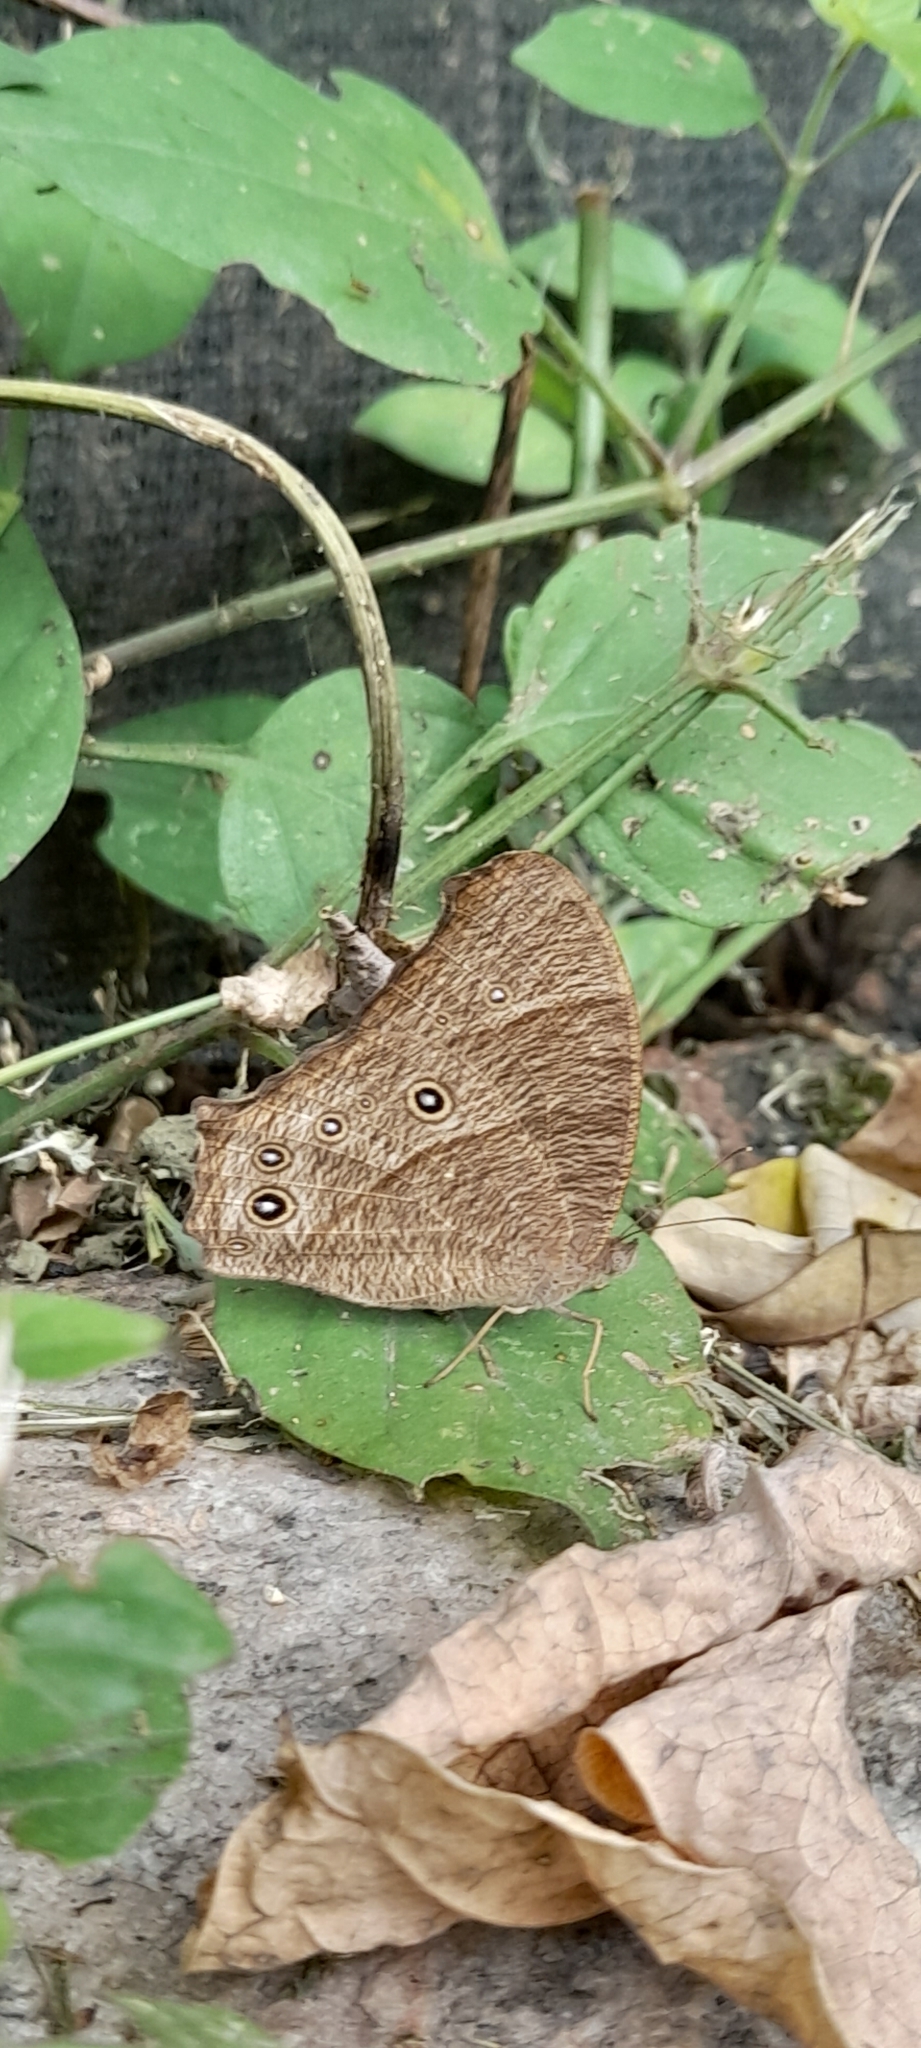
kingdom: Animalia
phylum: Arthropoda
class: Insecta
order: Lepidoptera
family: Nymphalidae
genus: Melanitis
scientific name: Melanitis leda
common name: Twilight brown
